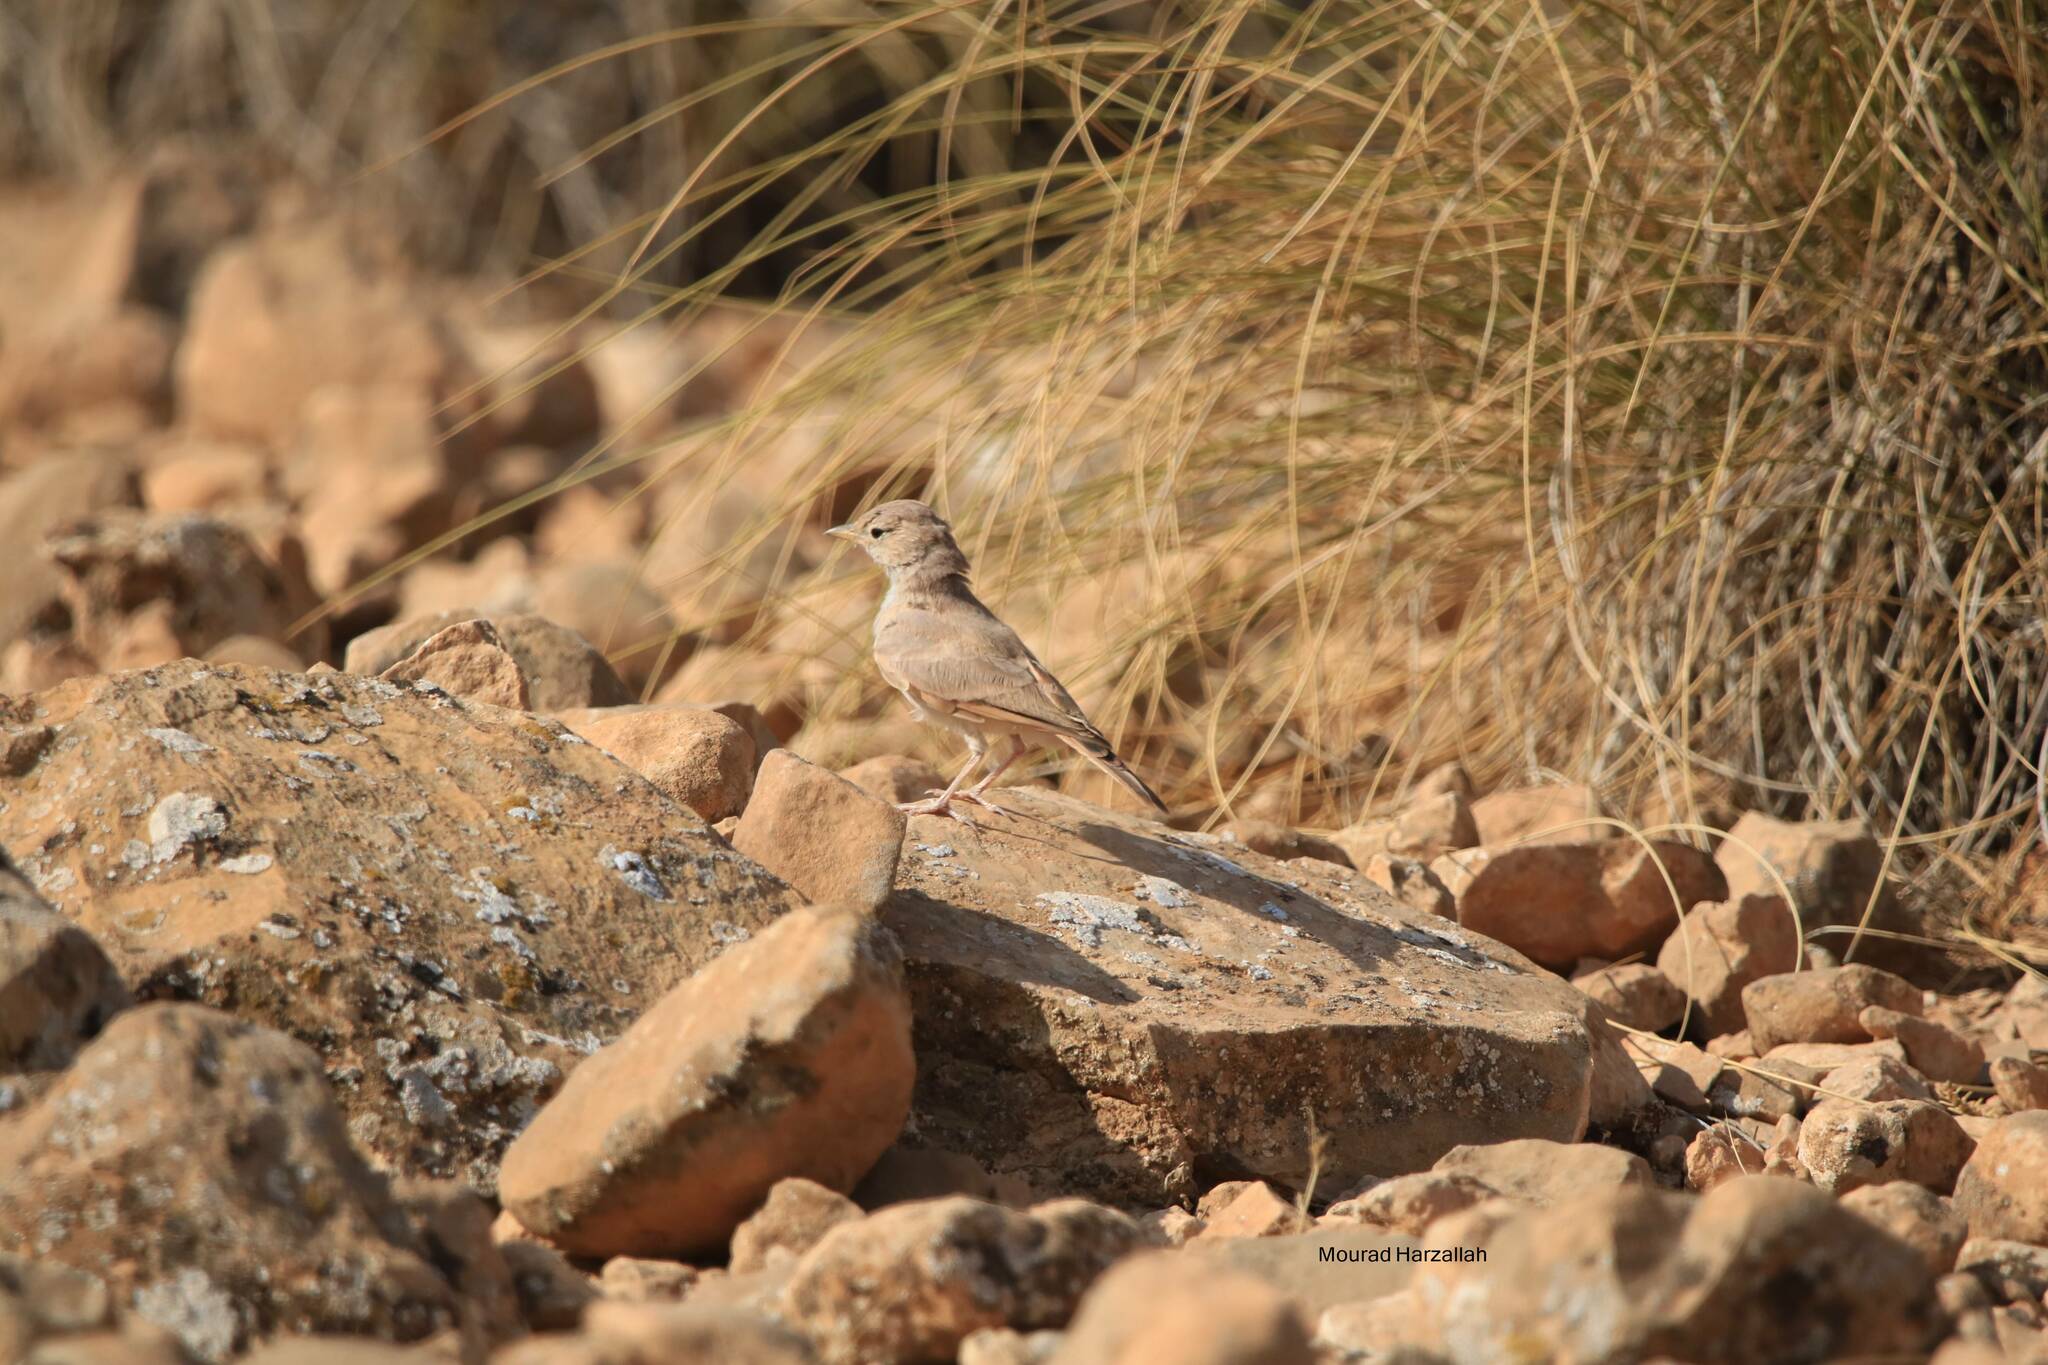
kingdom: Animalia
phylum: Chordata
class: Aves
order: Passeriformes
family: Alaudidae
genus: Ammomanes
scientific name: Ammomanes deserti
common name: Desert lark
